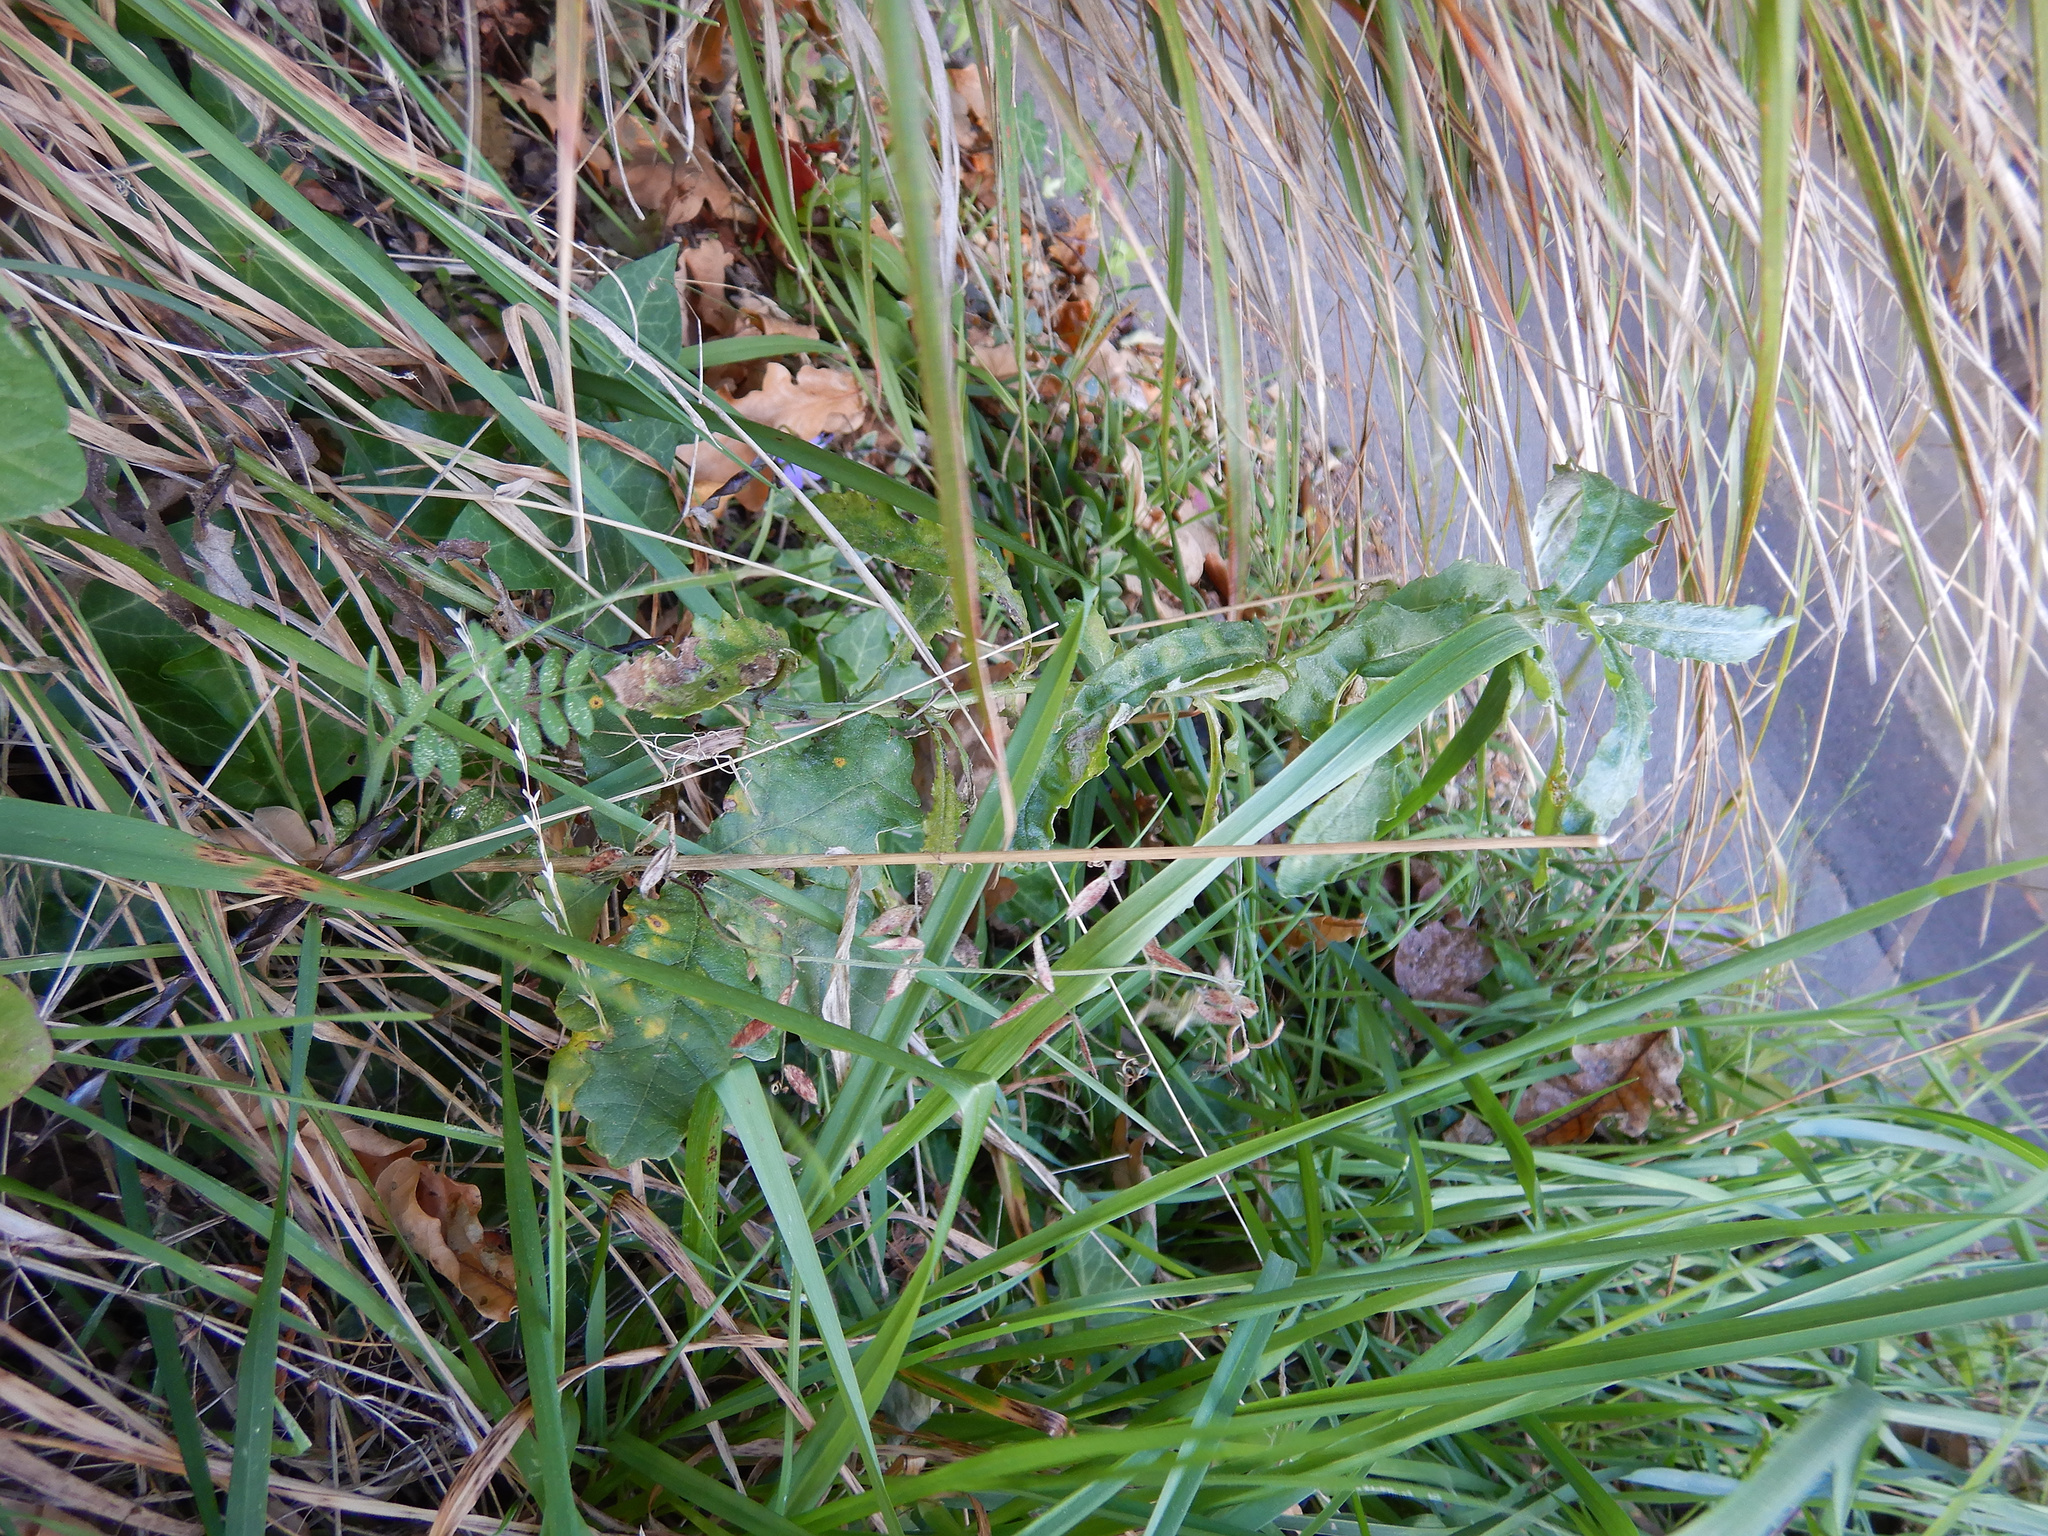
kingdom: Plantae
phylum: Tracheophyta
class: Magnoliopsida
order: Asterales
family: Asteraceae
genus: Senecio
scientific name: Senecio glomeratus
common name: Cutleaf burnweed
